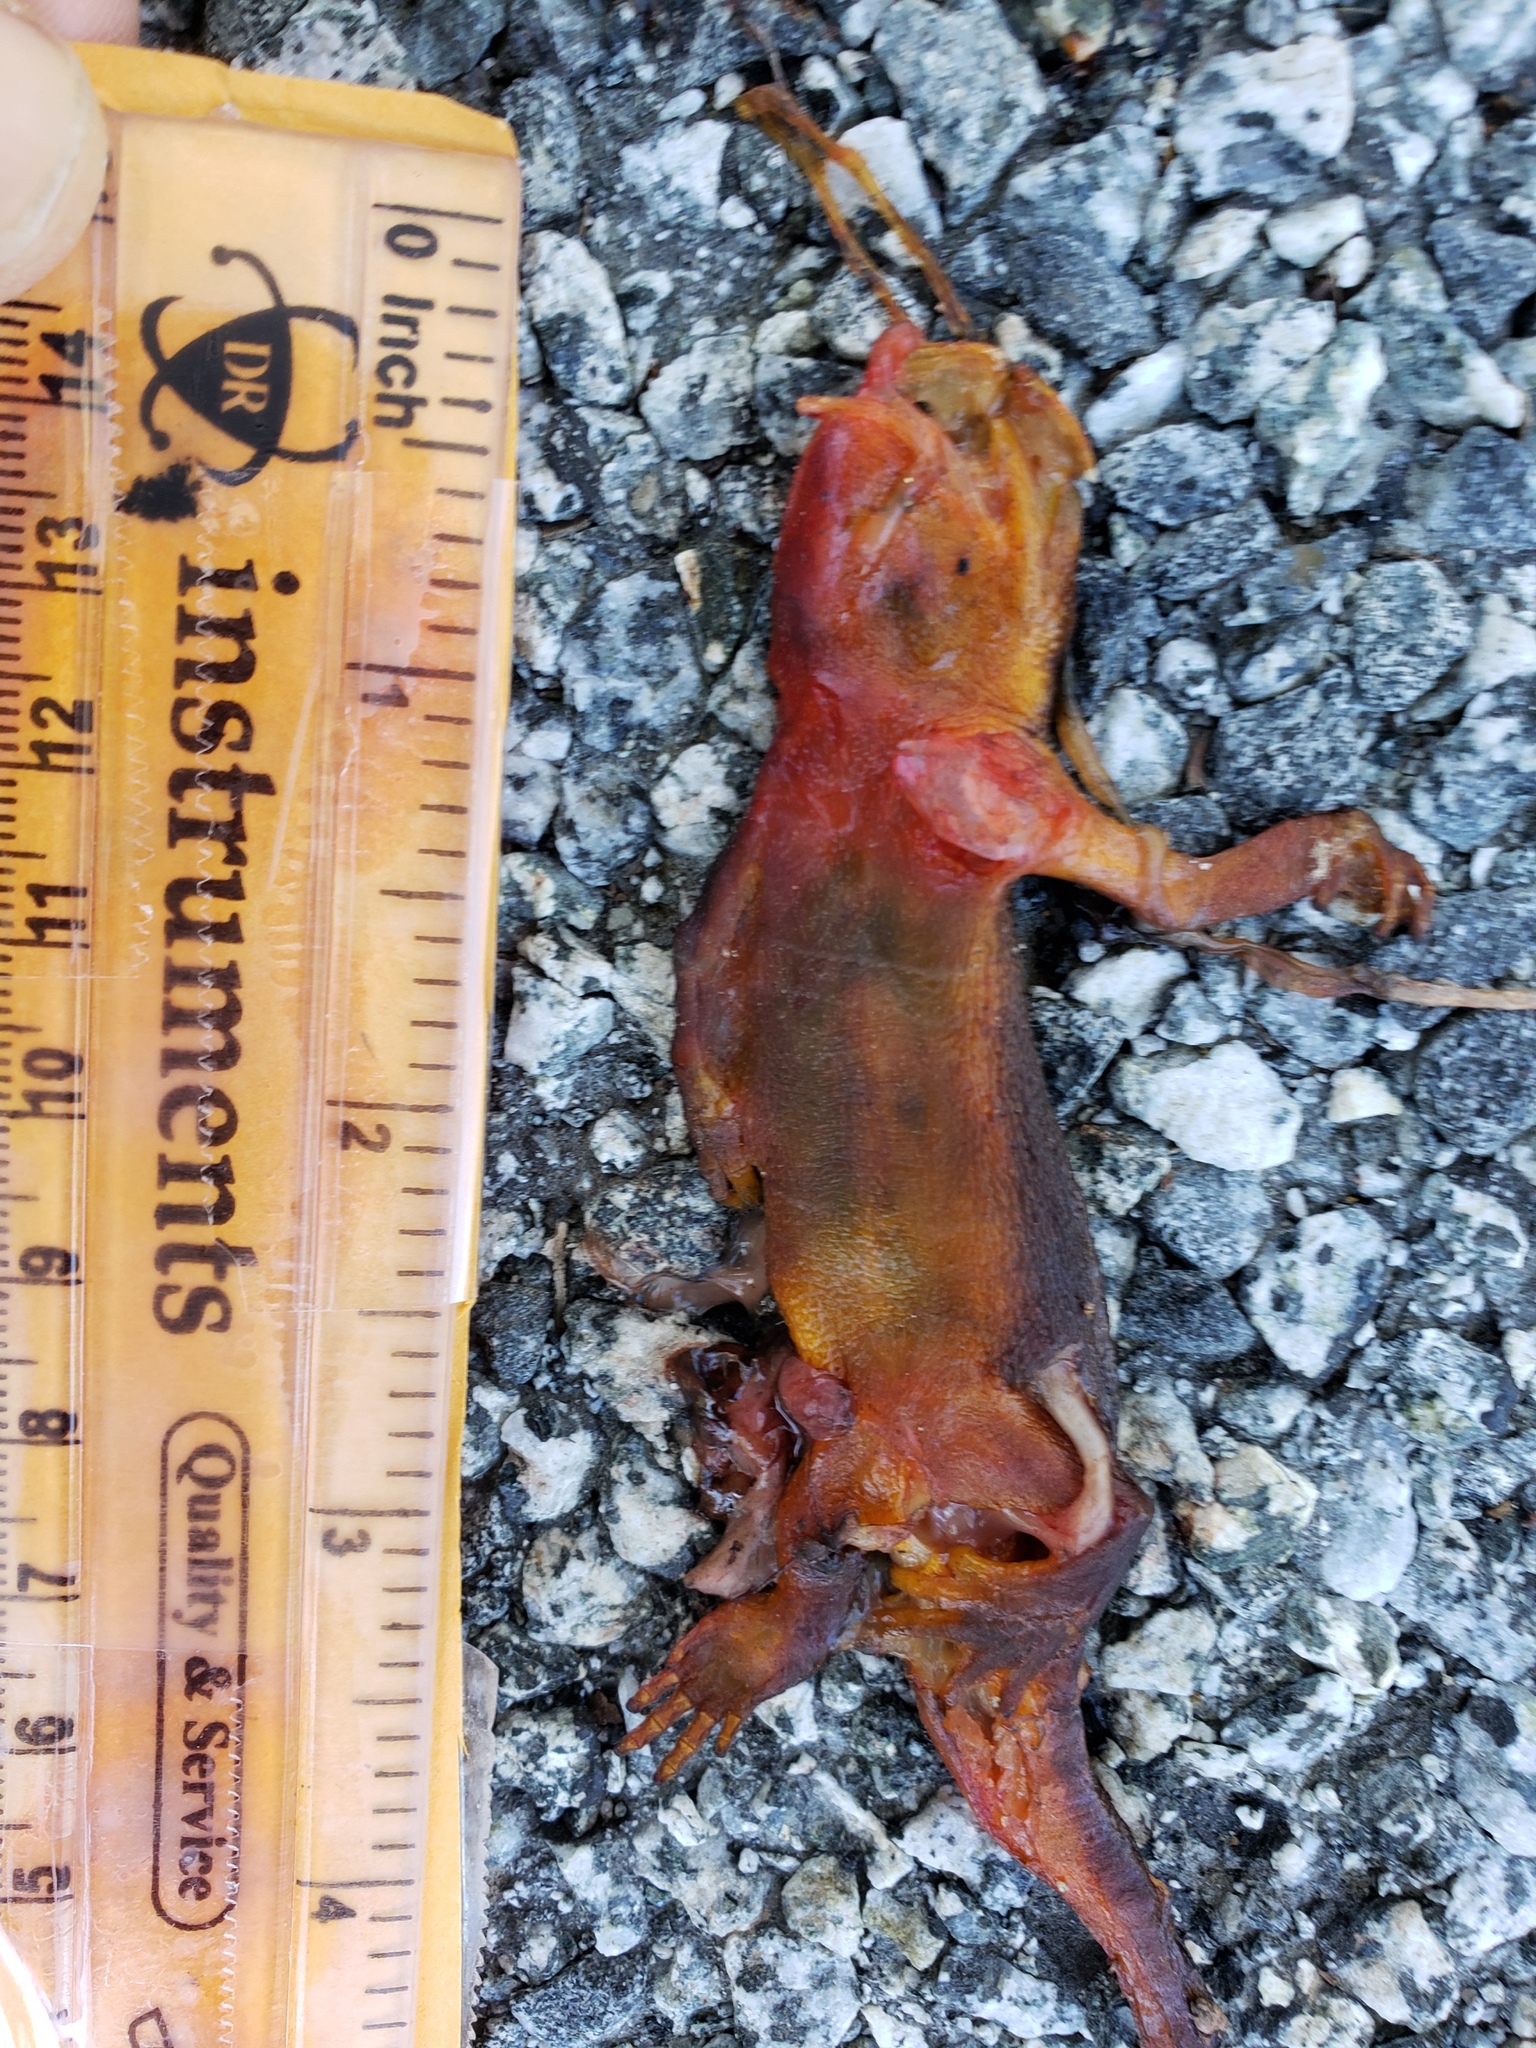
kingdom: Animalia
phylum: Chordata
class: Amphibia
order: Caudata
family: Salamandridae
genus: Taricha
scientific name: Taricha
